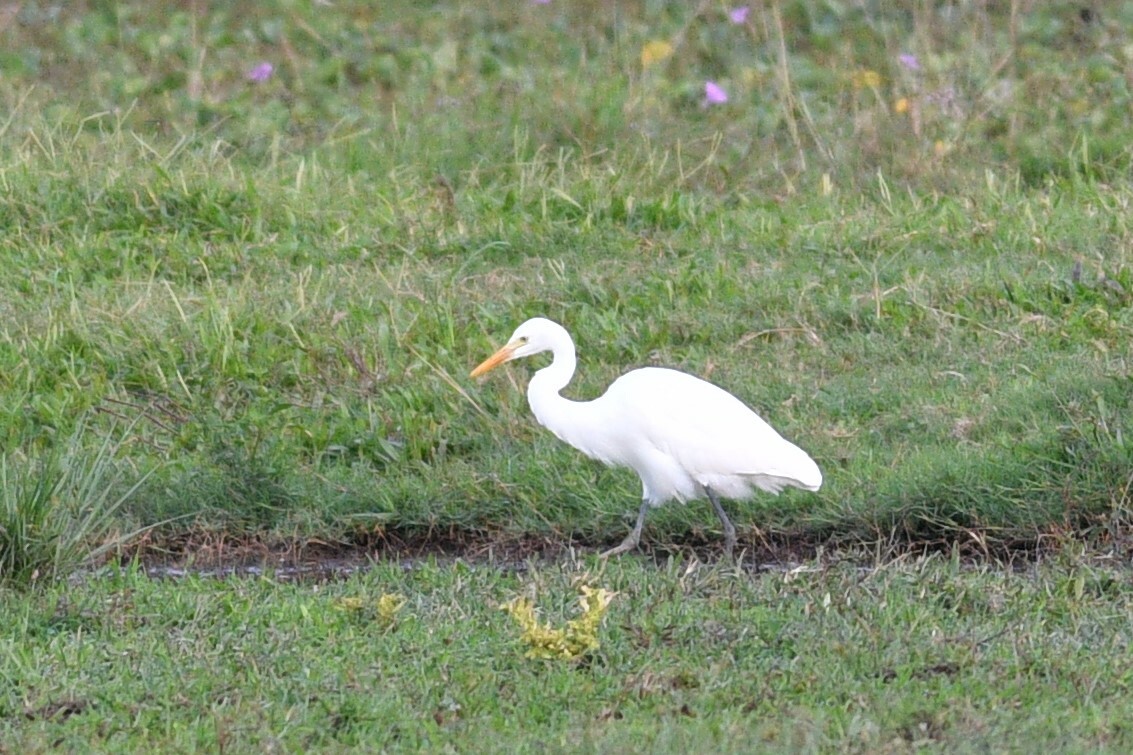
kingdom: Animalia
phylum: Chordata
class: Aves
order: Pelecaniformes
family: Ardeidae
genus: Bubulcus
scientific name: Bubulcus coromandus
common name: Eastern cattle egret
